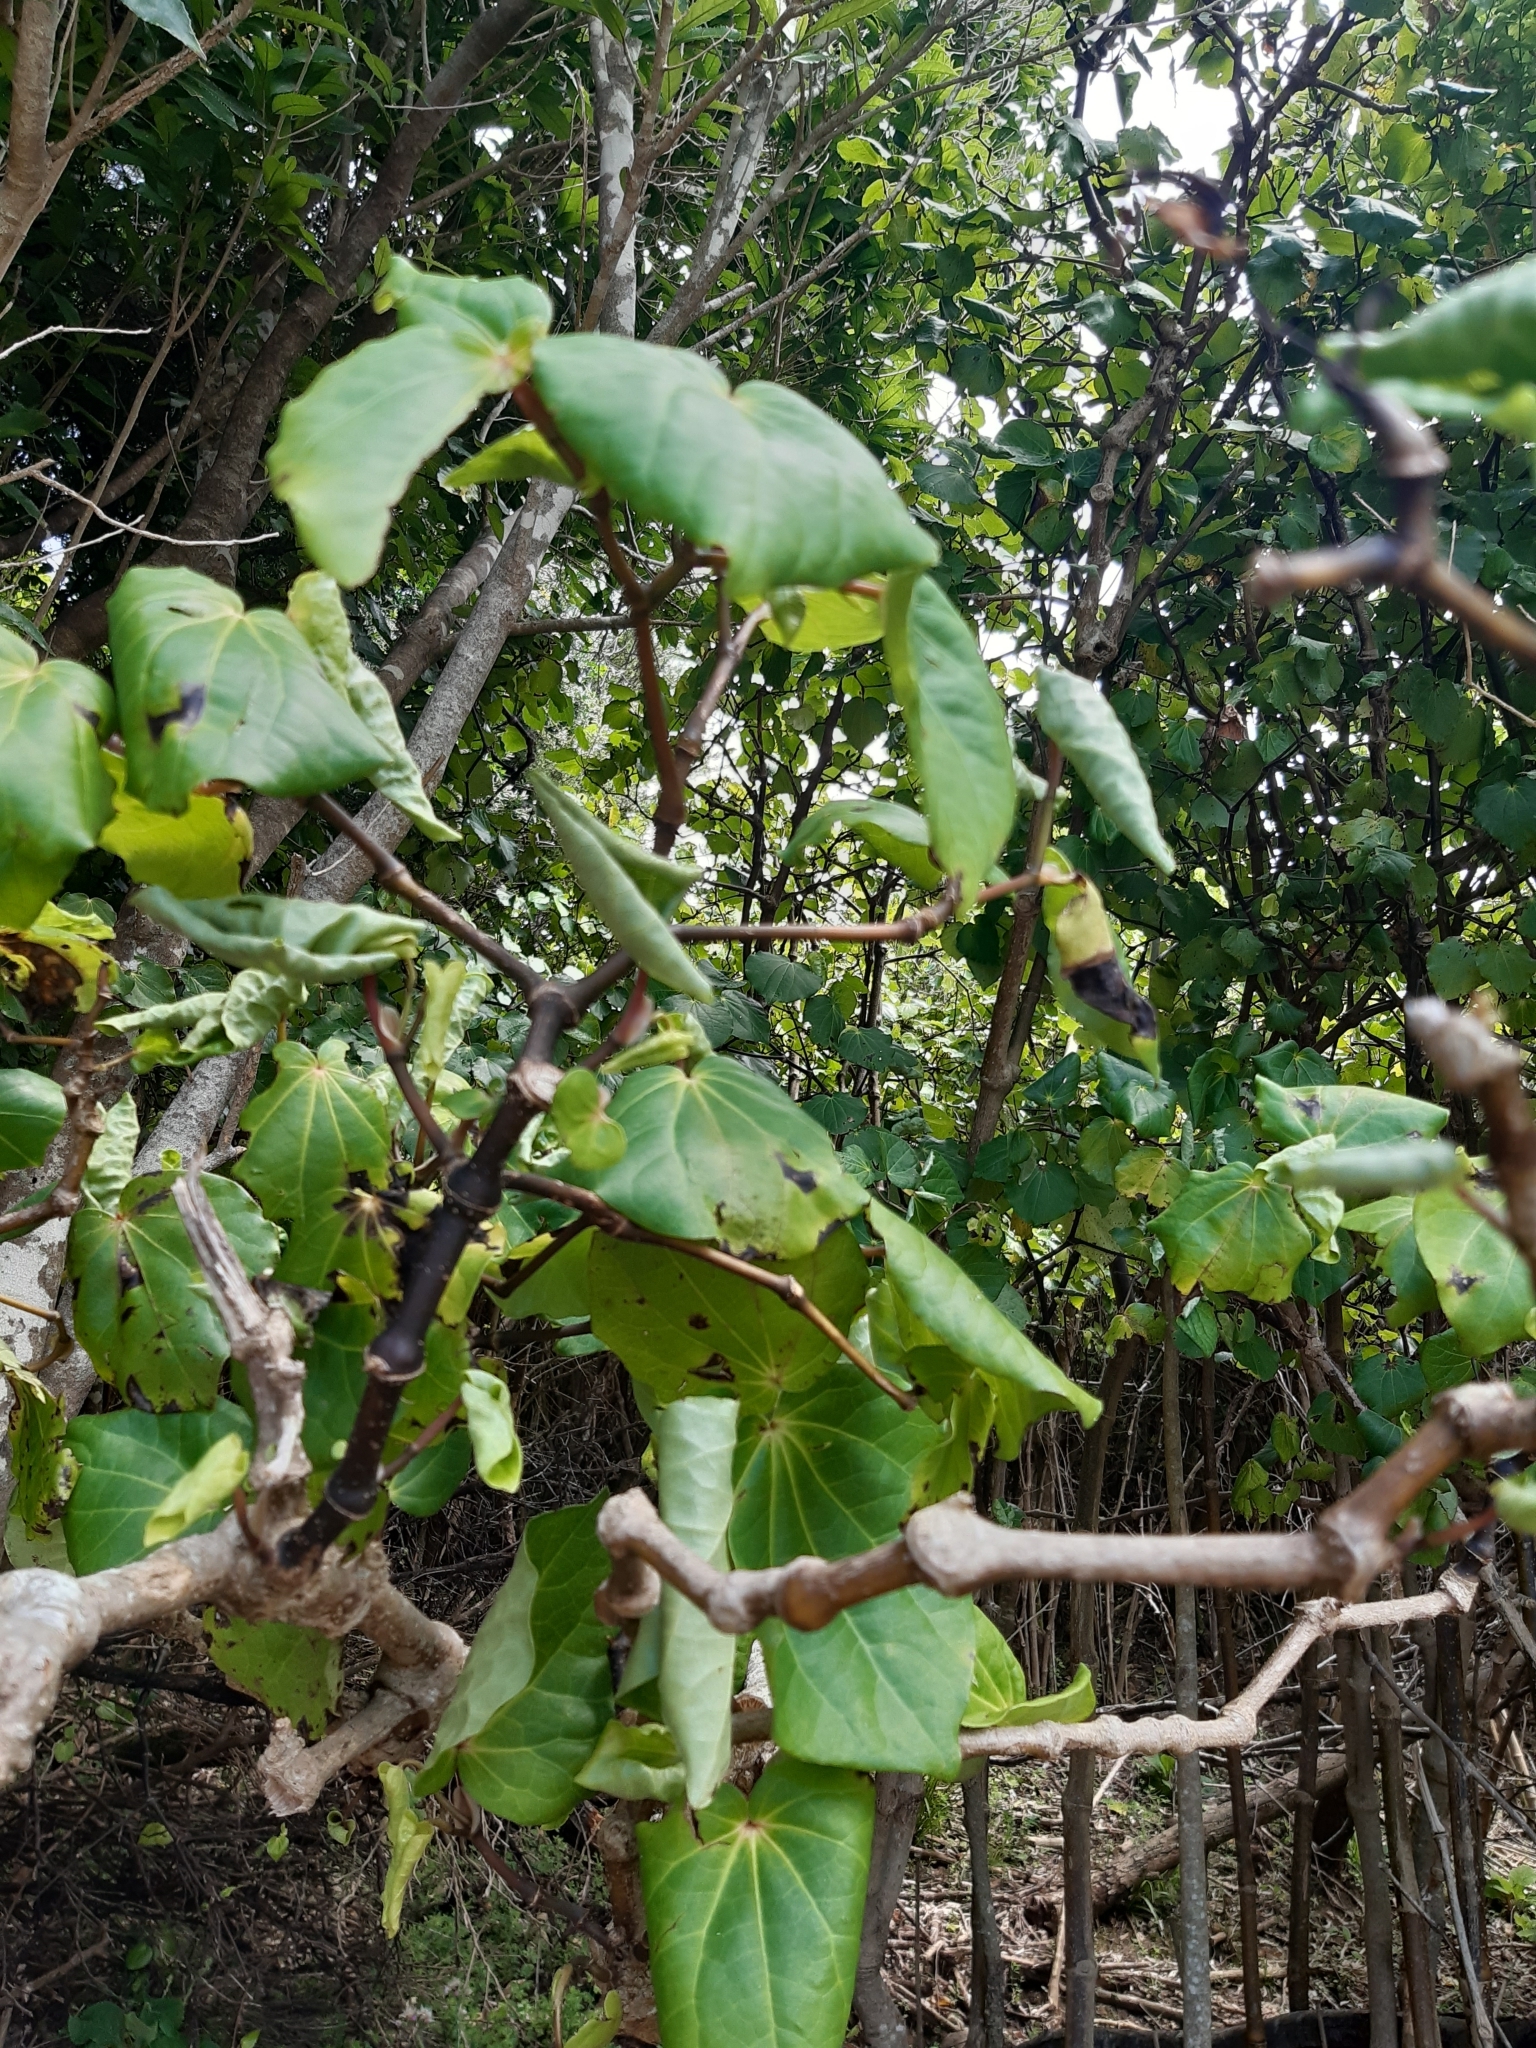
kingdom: Plantae
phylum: Tracheophyta
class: Magnoliopsida
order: Piperales
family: Piperaceae
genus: Macropiper
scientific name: Macropiper excelsum
